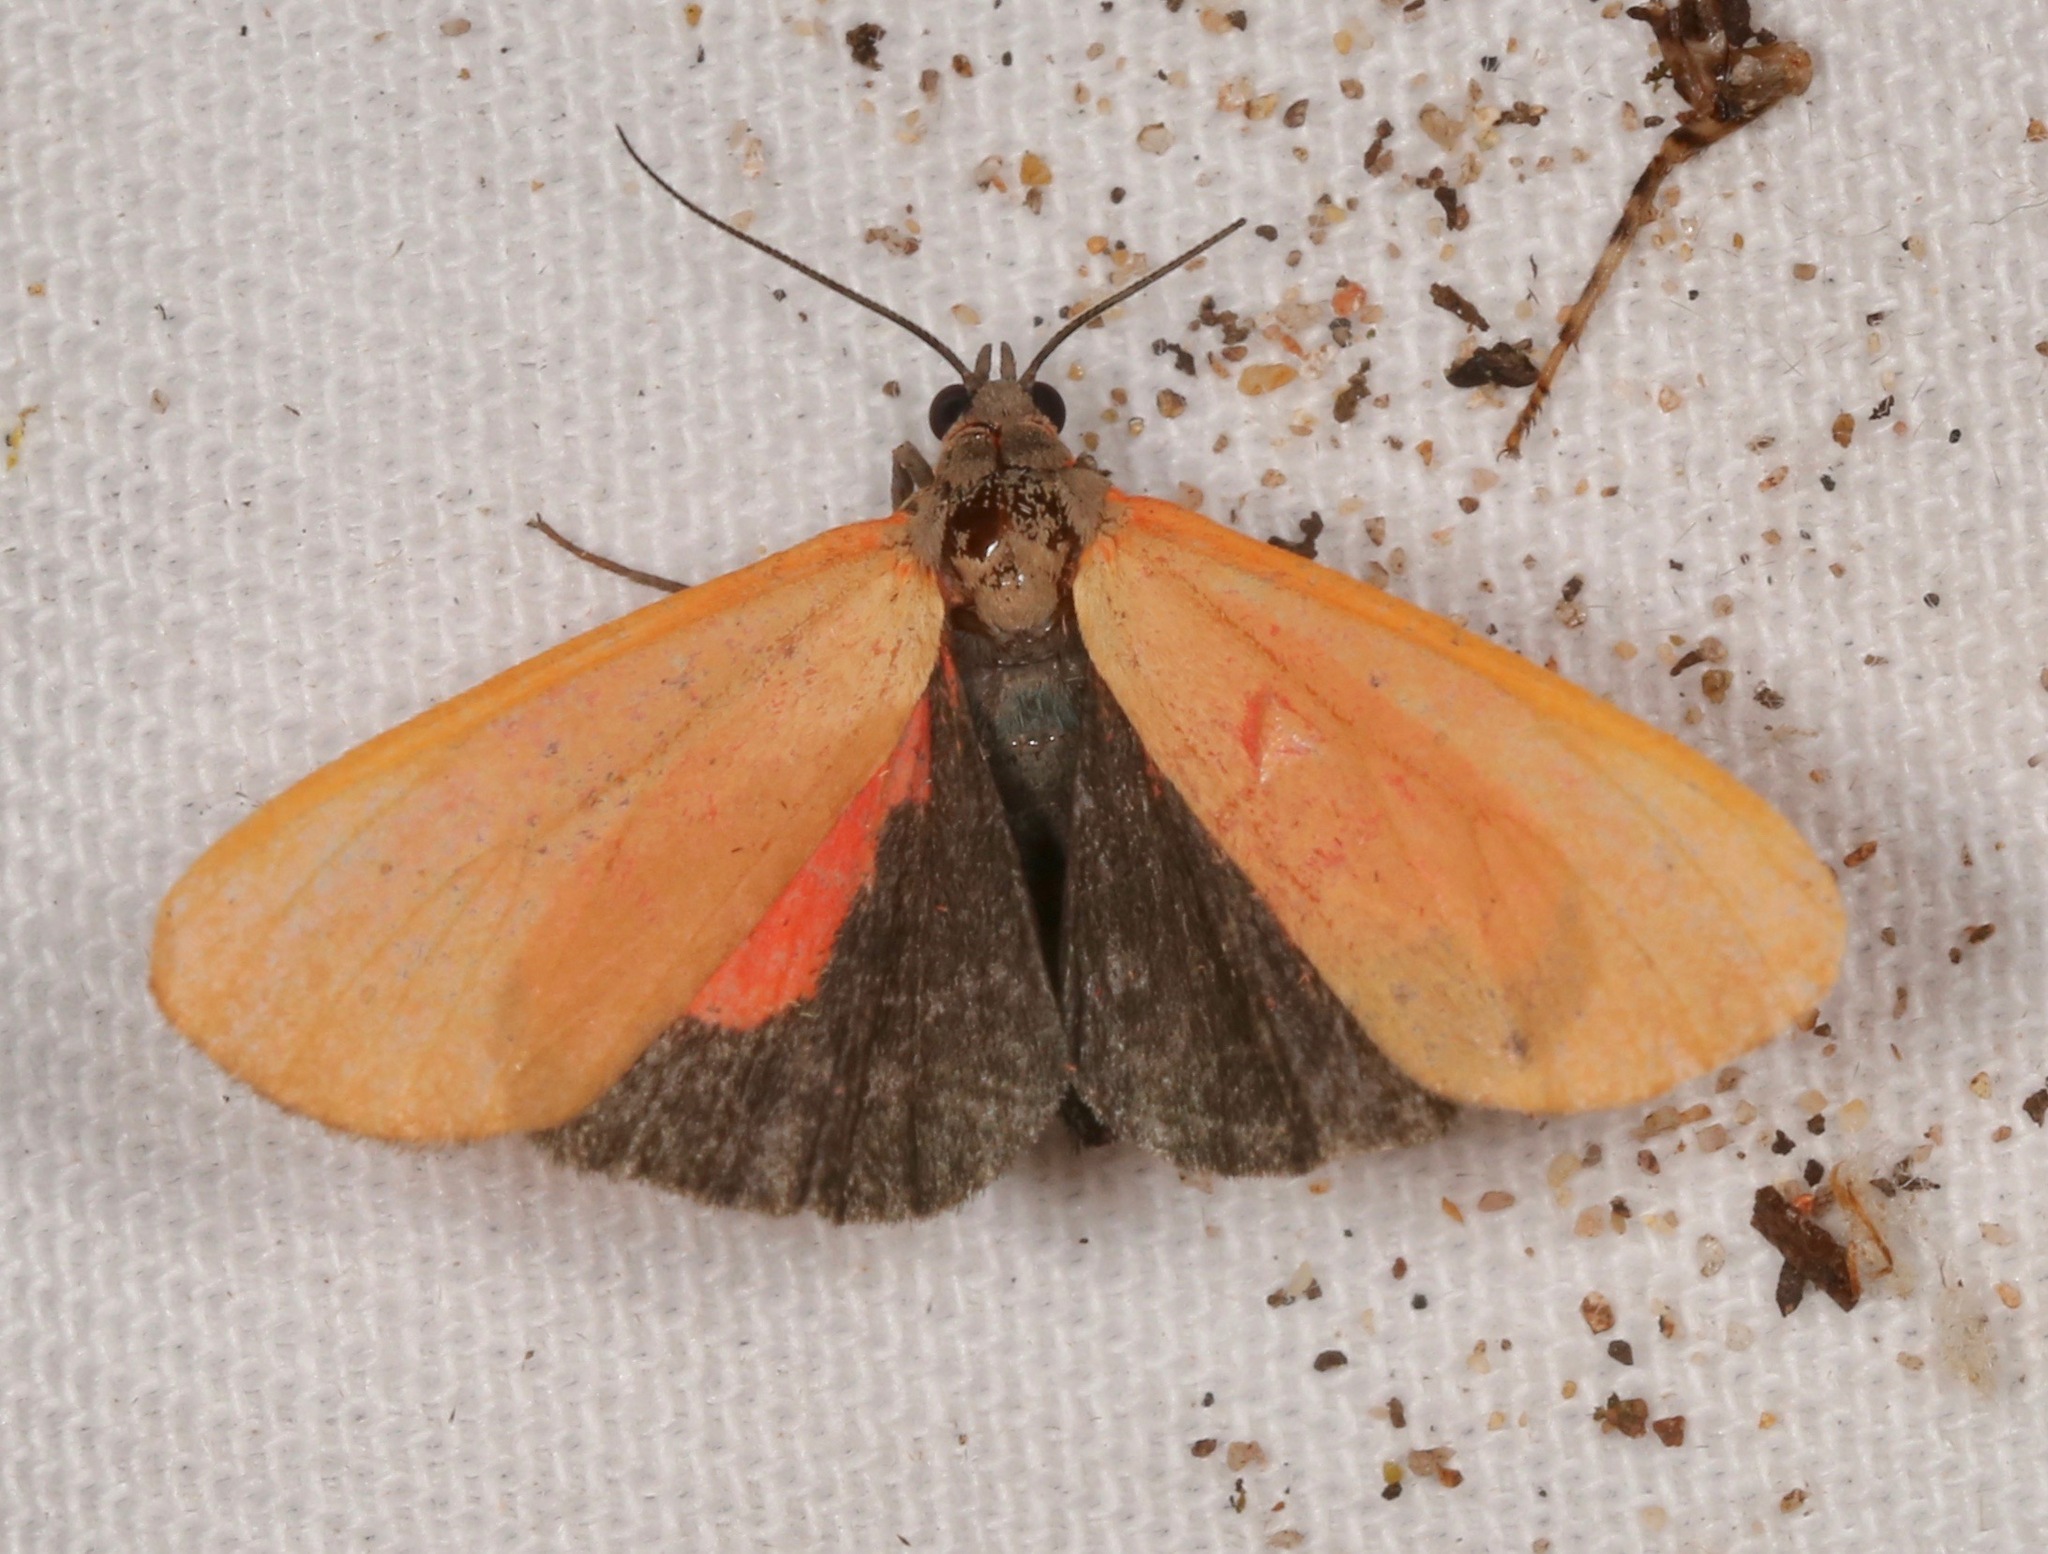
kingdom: Animalia
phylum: Arthropoda
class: Insecta
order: Lepidoptera
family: Erebidae
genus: Virbia
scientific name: Virbia ostenta
